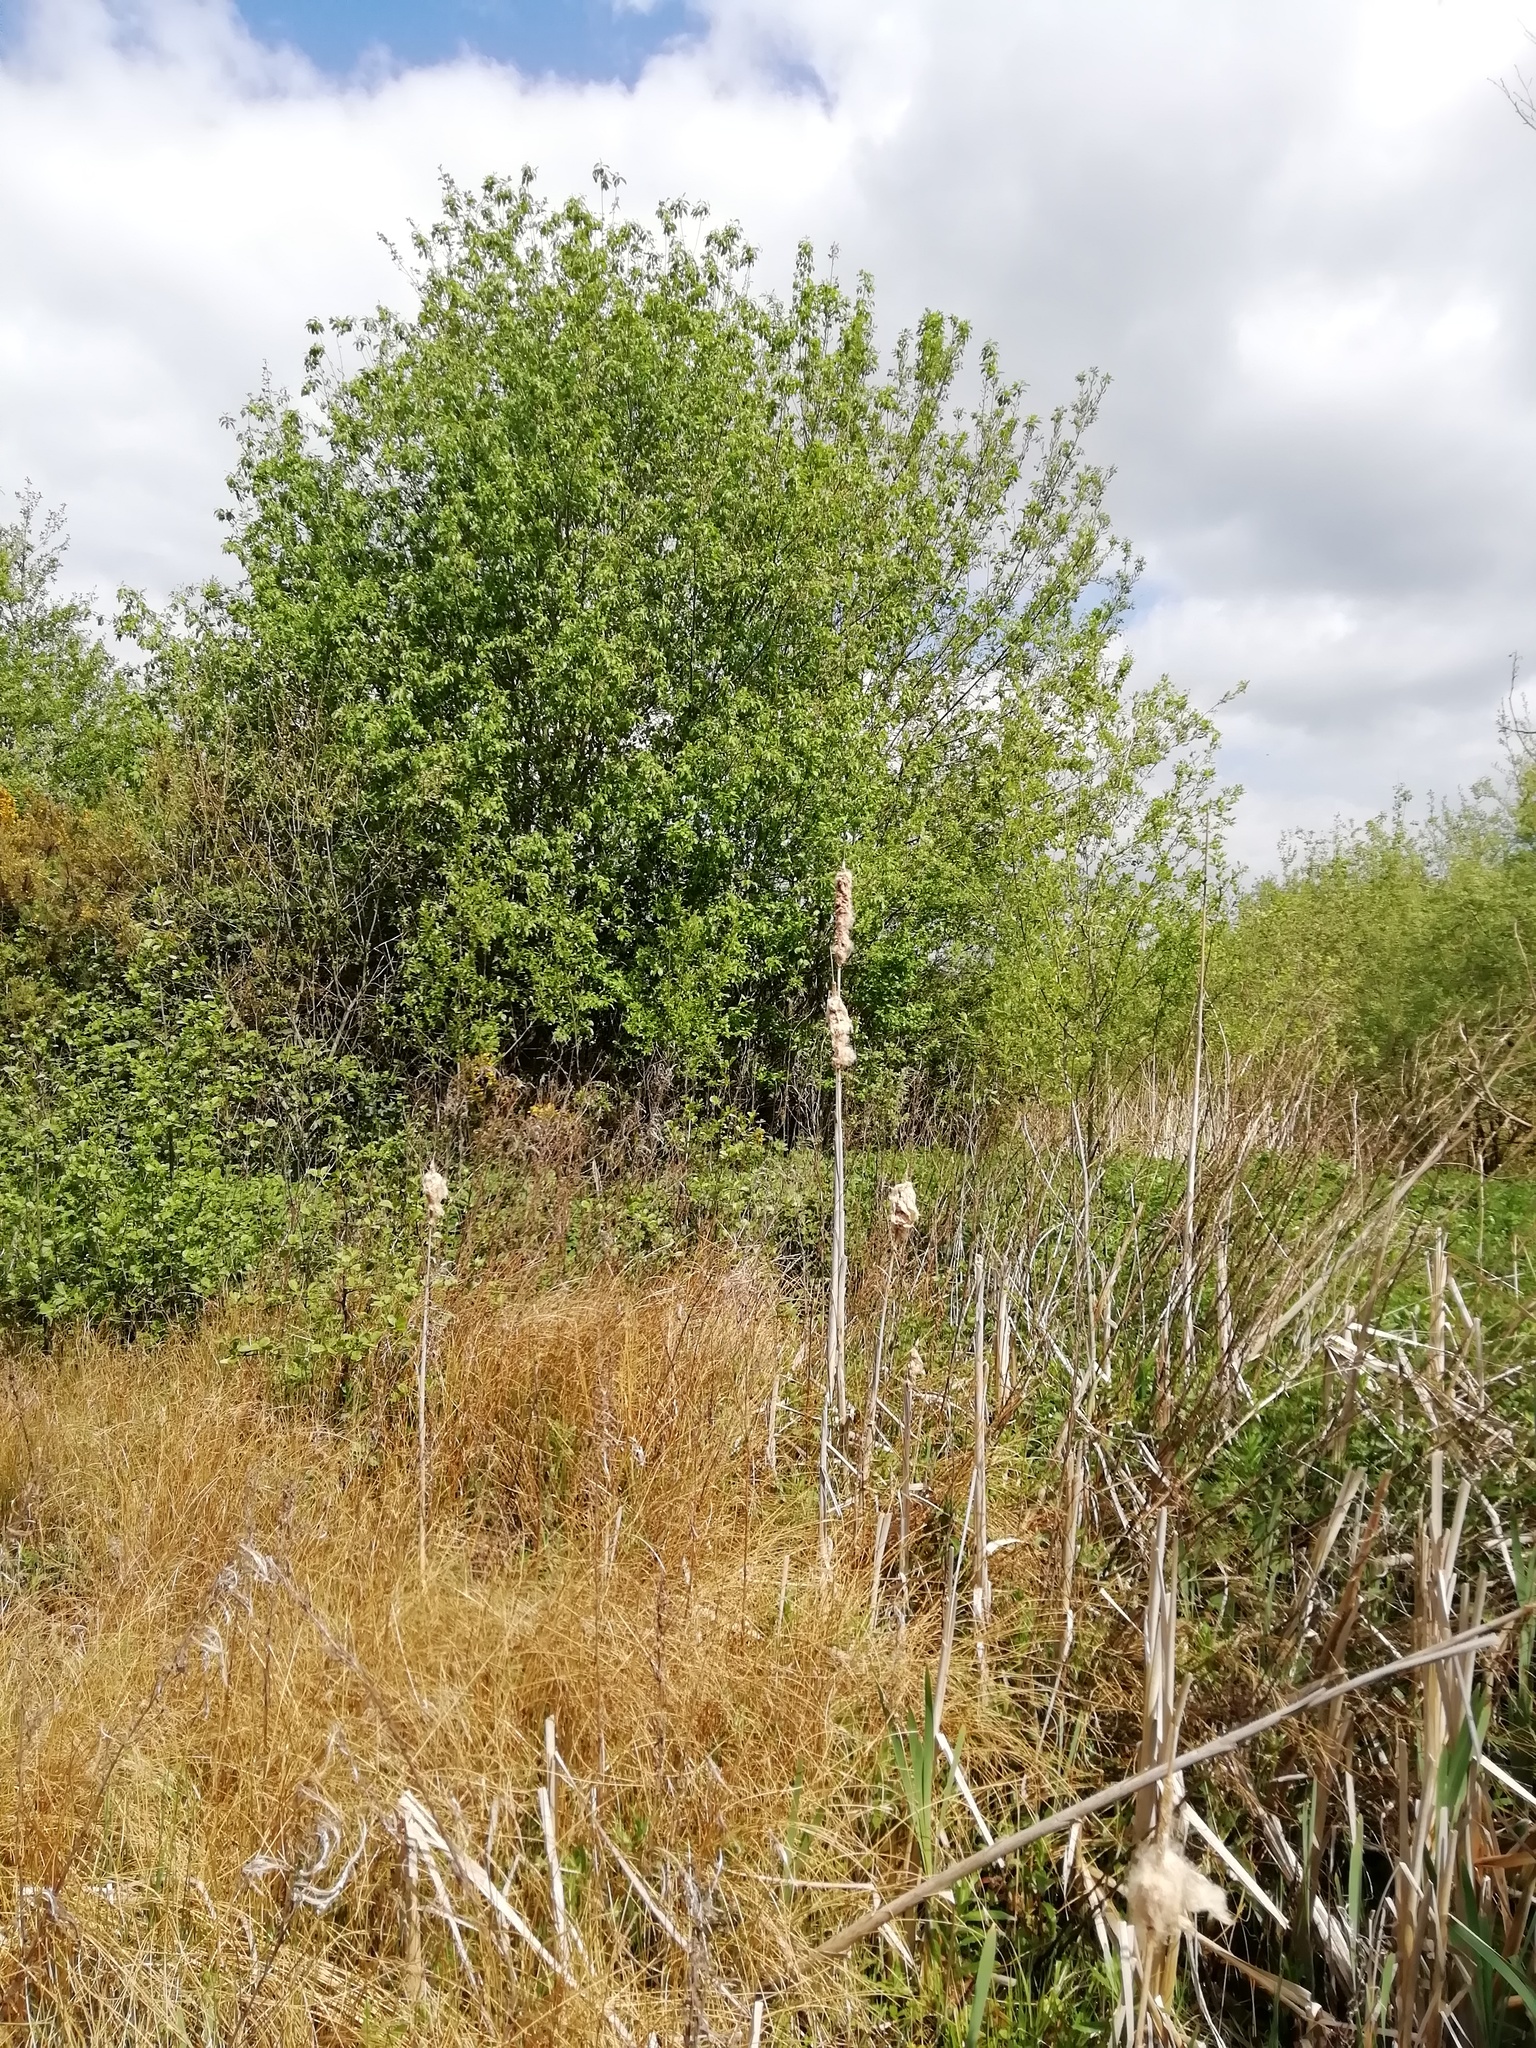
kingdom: Plantae
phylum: Tracheophyta
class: Liliopsida
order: Poales
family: Typhaceae
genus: Typha
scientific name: Typha latifolia
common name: Broadleaf cattail
